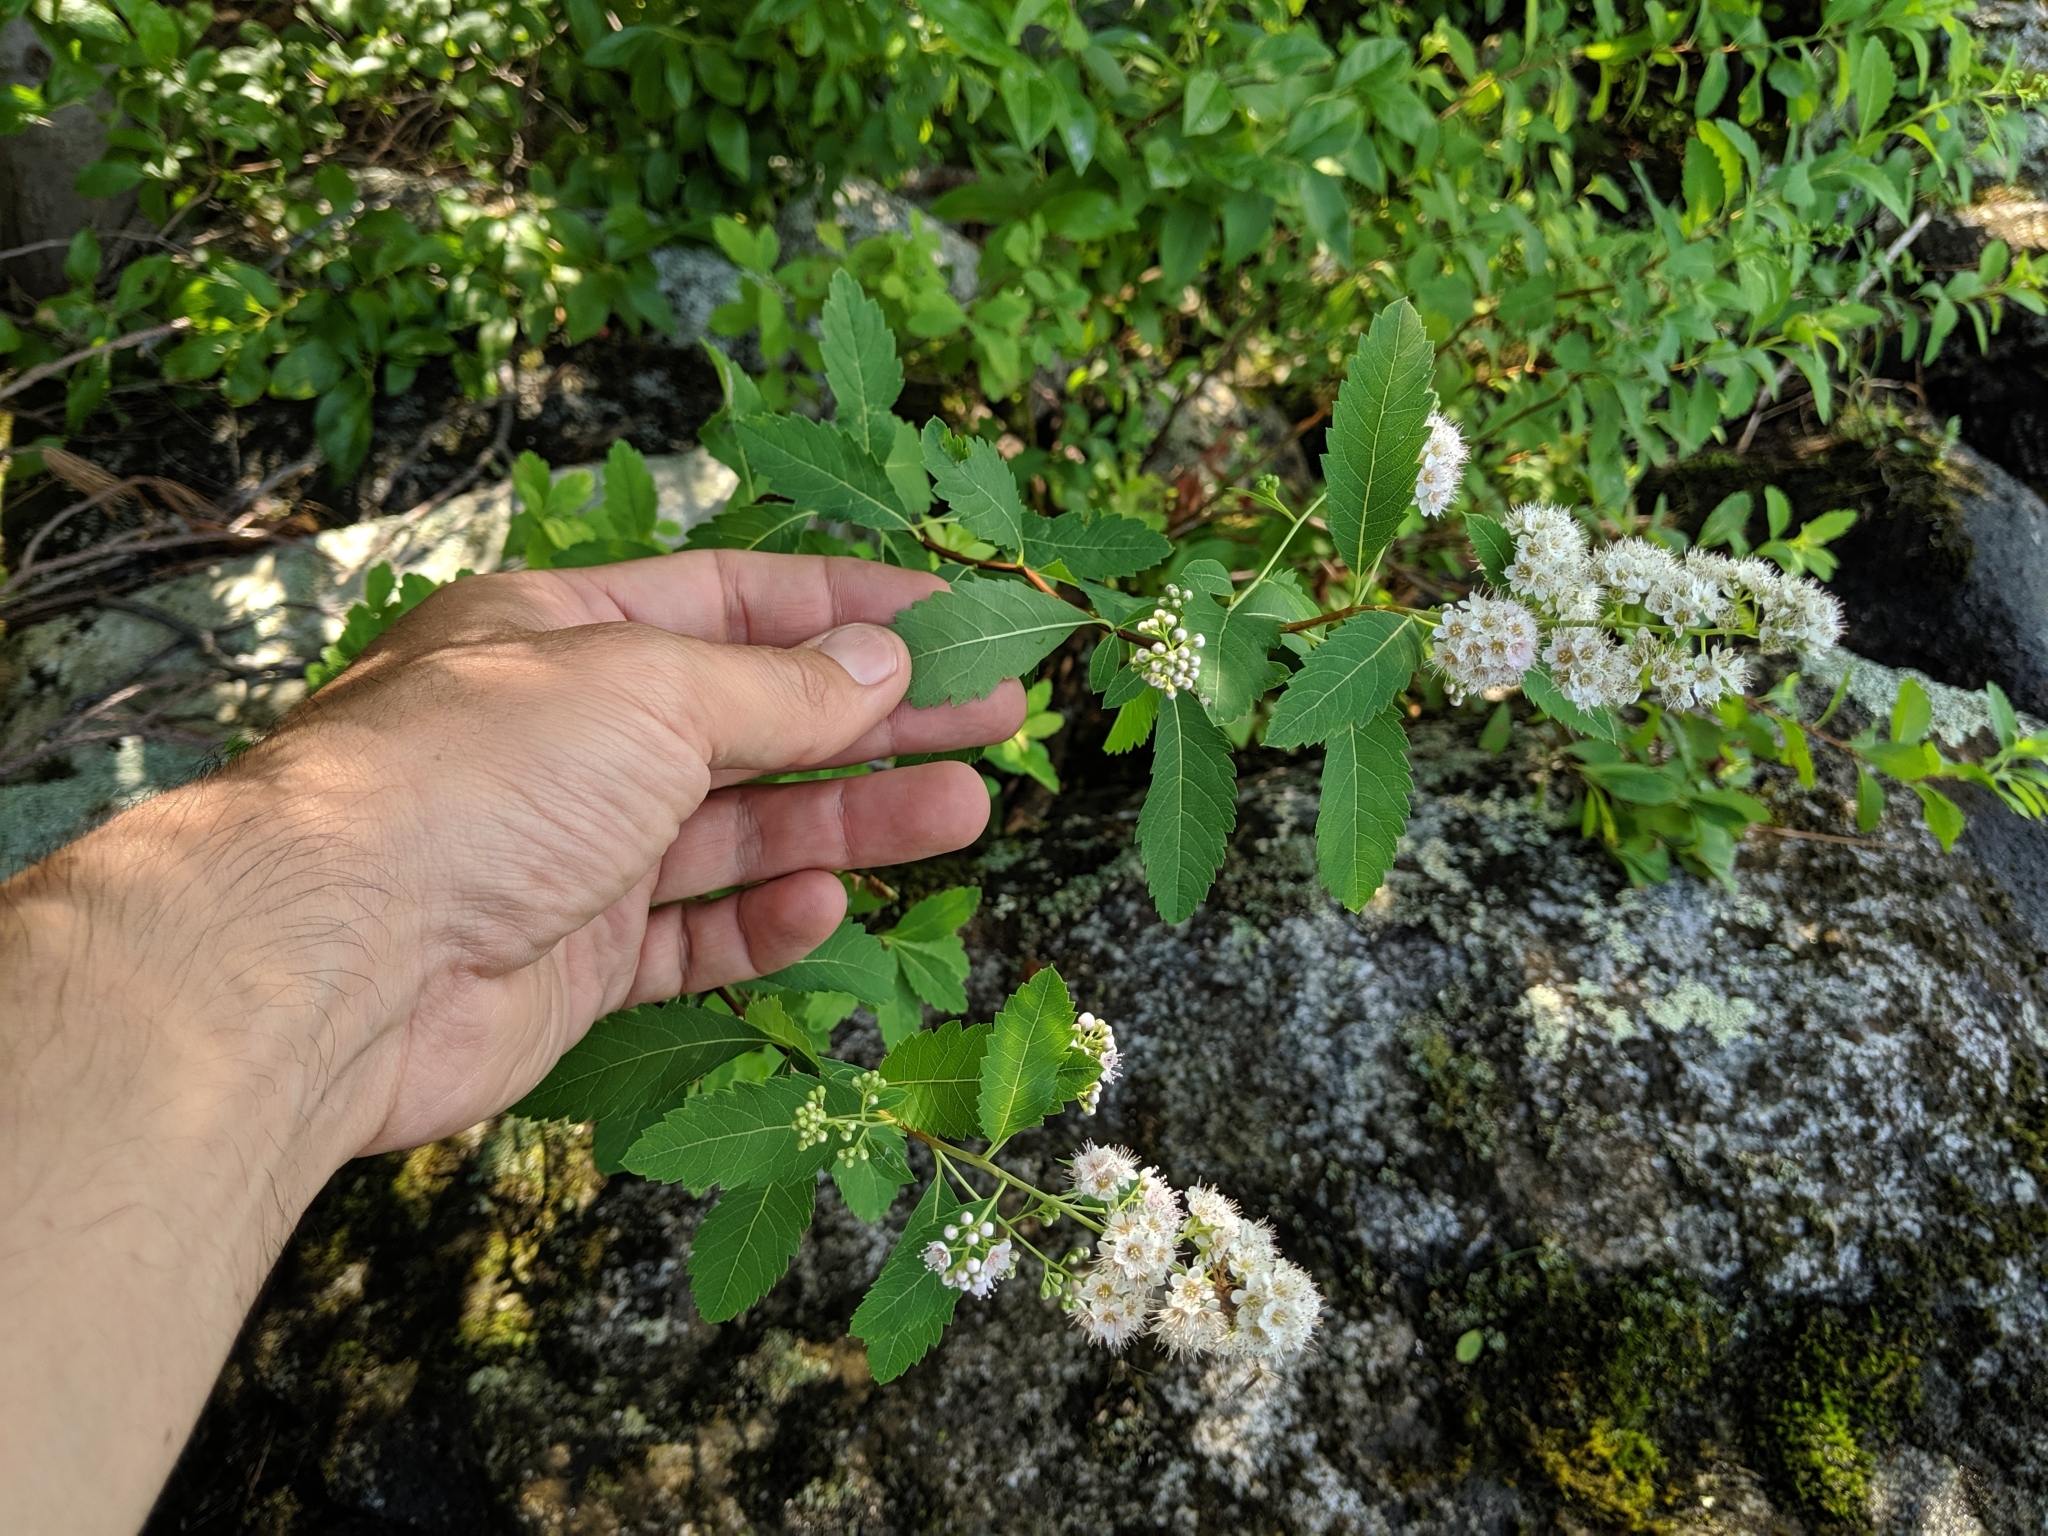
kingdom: Plantae
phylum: Tracheophyta
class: Magnoliopsida
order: Rosales
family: Rosaceae
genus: Spiraea
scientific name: Spiraea alba
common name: Pale bridewort
